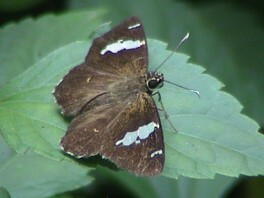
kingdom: Animalia
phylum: Arthropoda
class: Insecta
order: Lepidoptera
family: Hesperiidae
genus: Celaenorrhinus
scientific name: Celaenorrhinus leucocera
